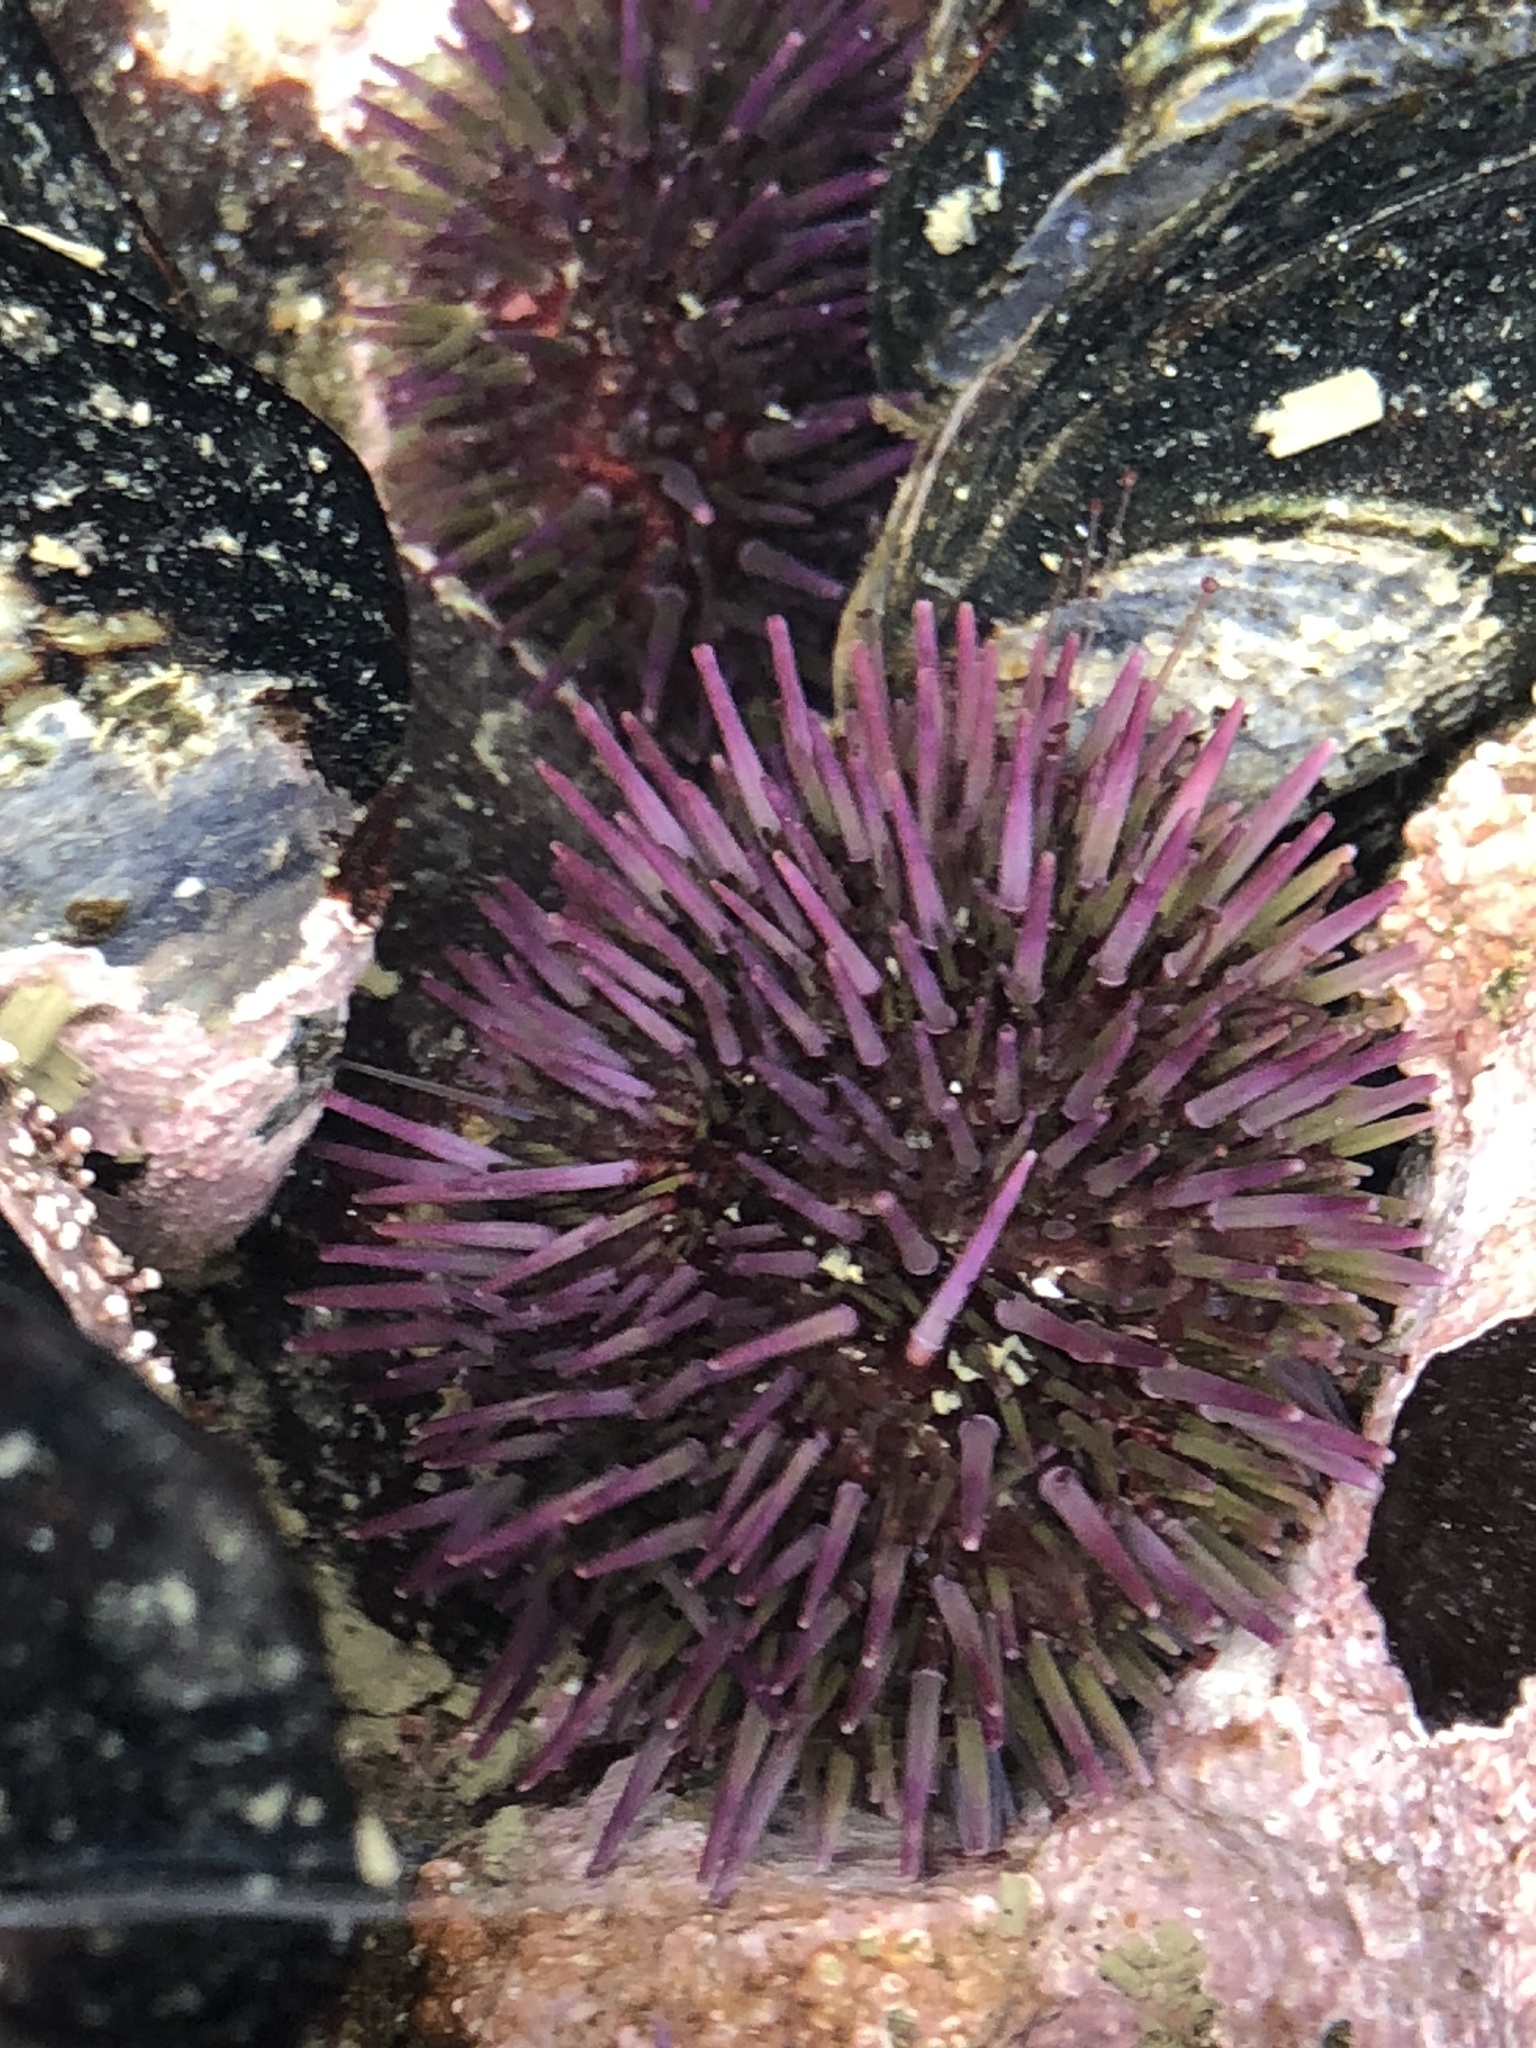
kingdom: Animalia
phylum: Echinodermata
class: Echinoidea
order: Camarodonta
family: Strongylocentrotidae
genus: Strongylocentrotus
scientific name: Strongylocentrotus purpuratus
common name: Purple sea urchin
